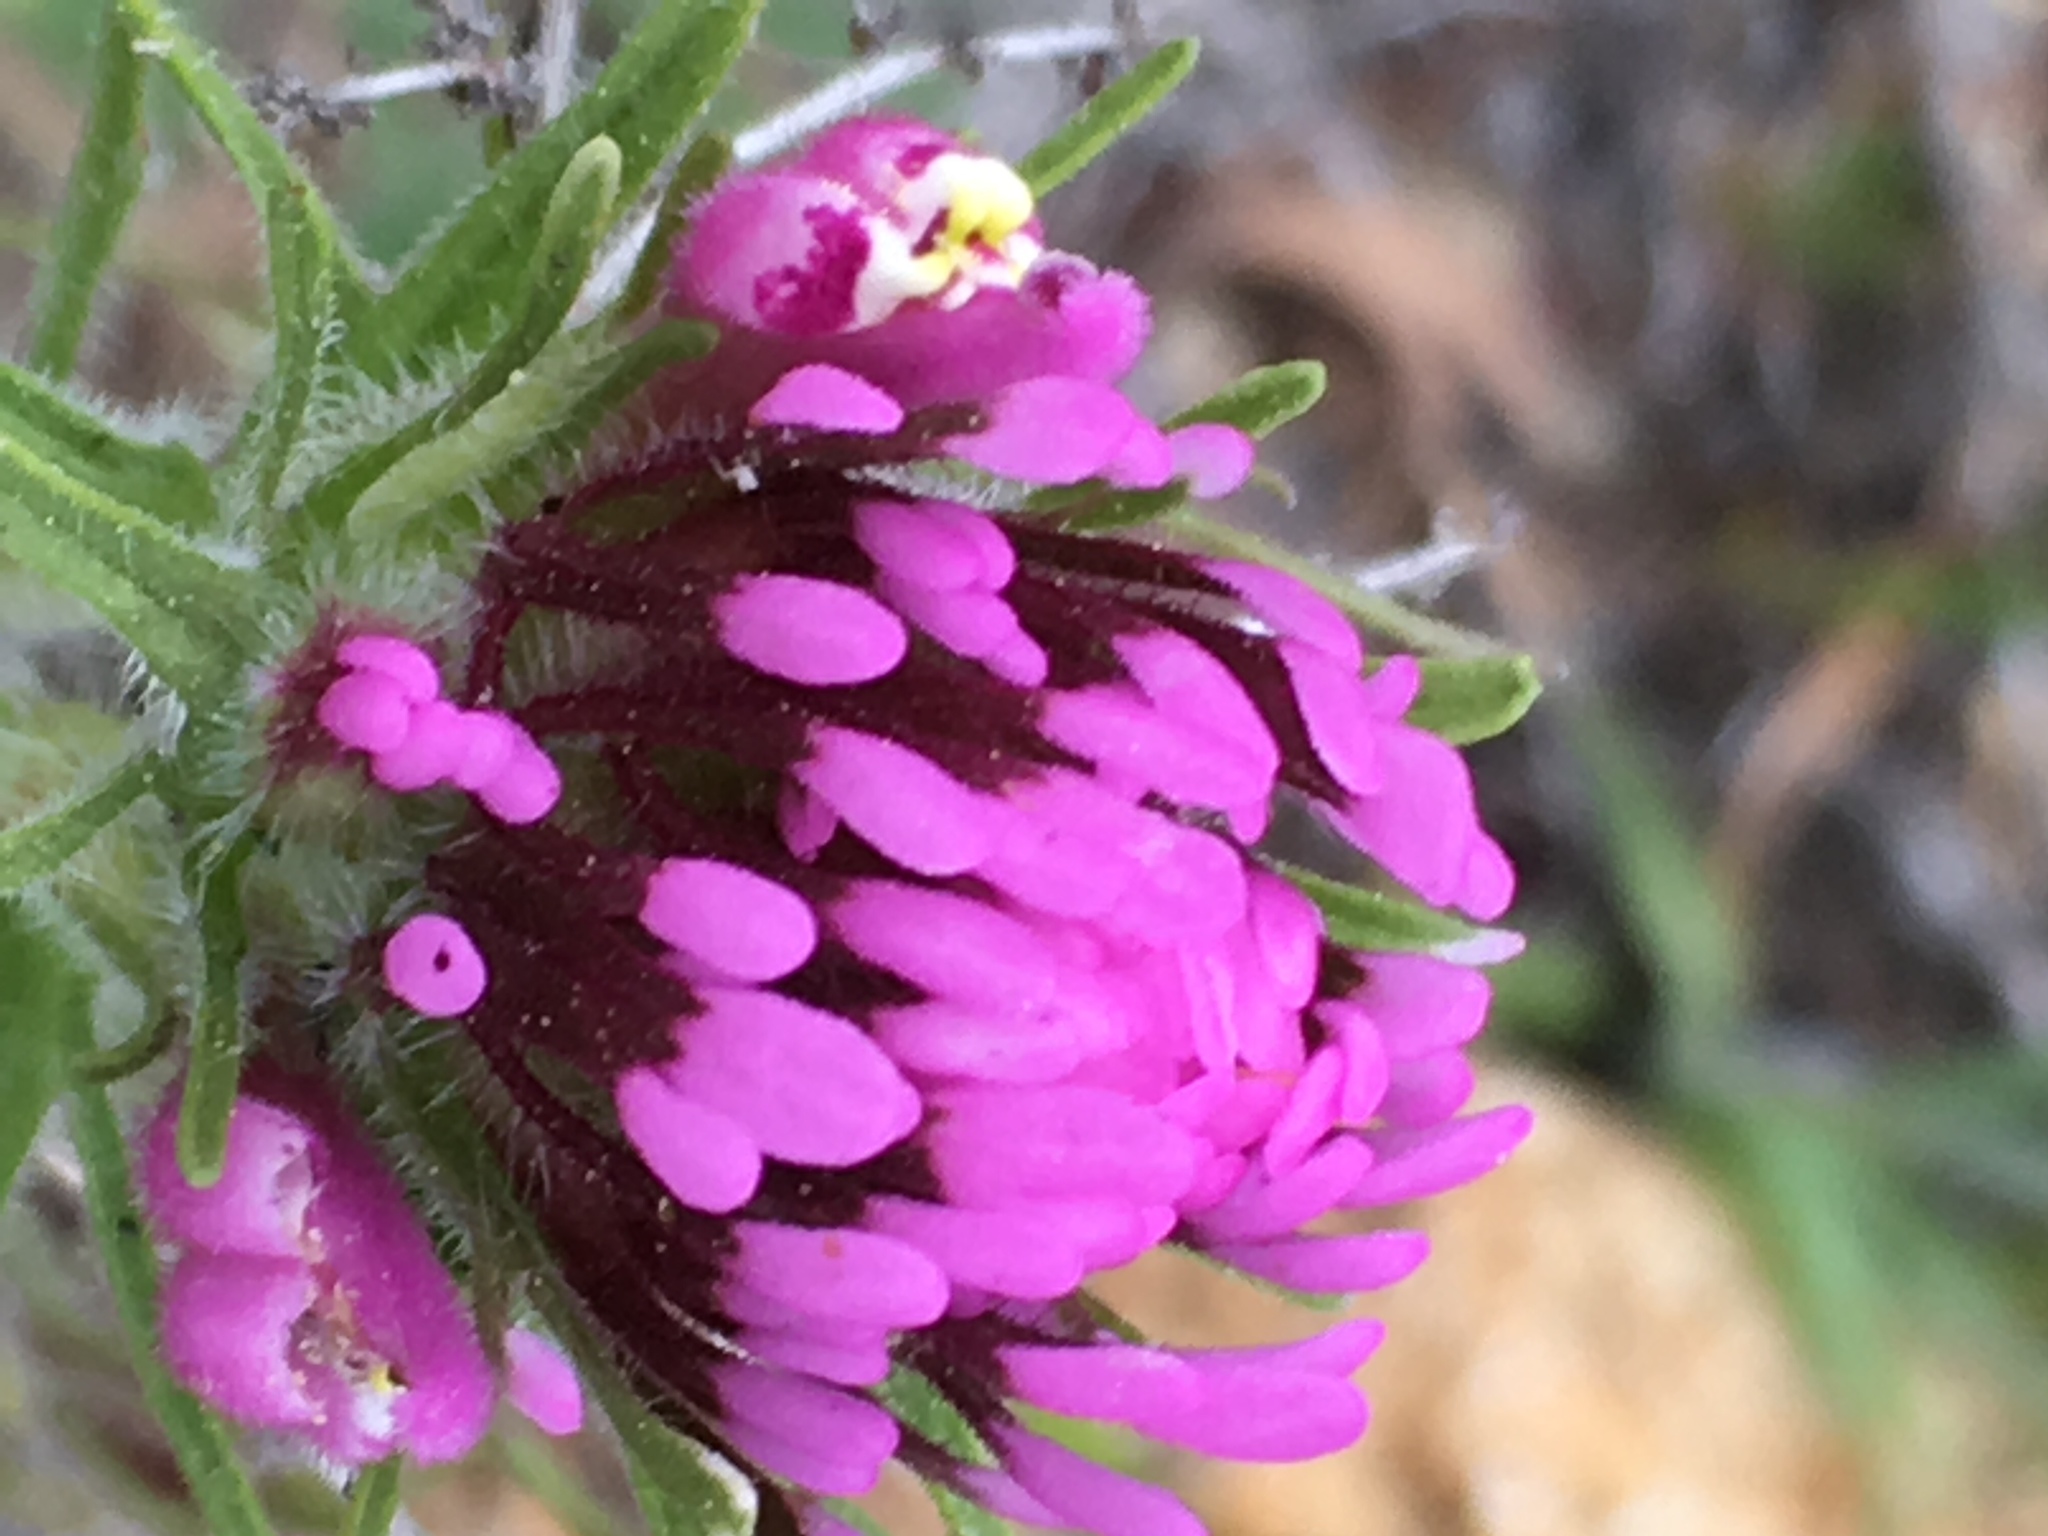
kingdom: Plantae
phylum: Tracheophyta
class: Magnoliopsida
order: Lamiales
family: Orobanchaceae
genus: Castilleja
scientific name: Castilleja exserta
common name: Purple owl-clover
